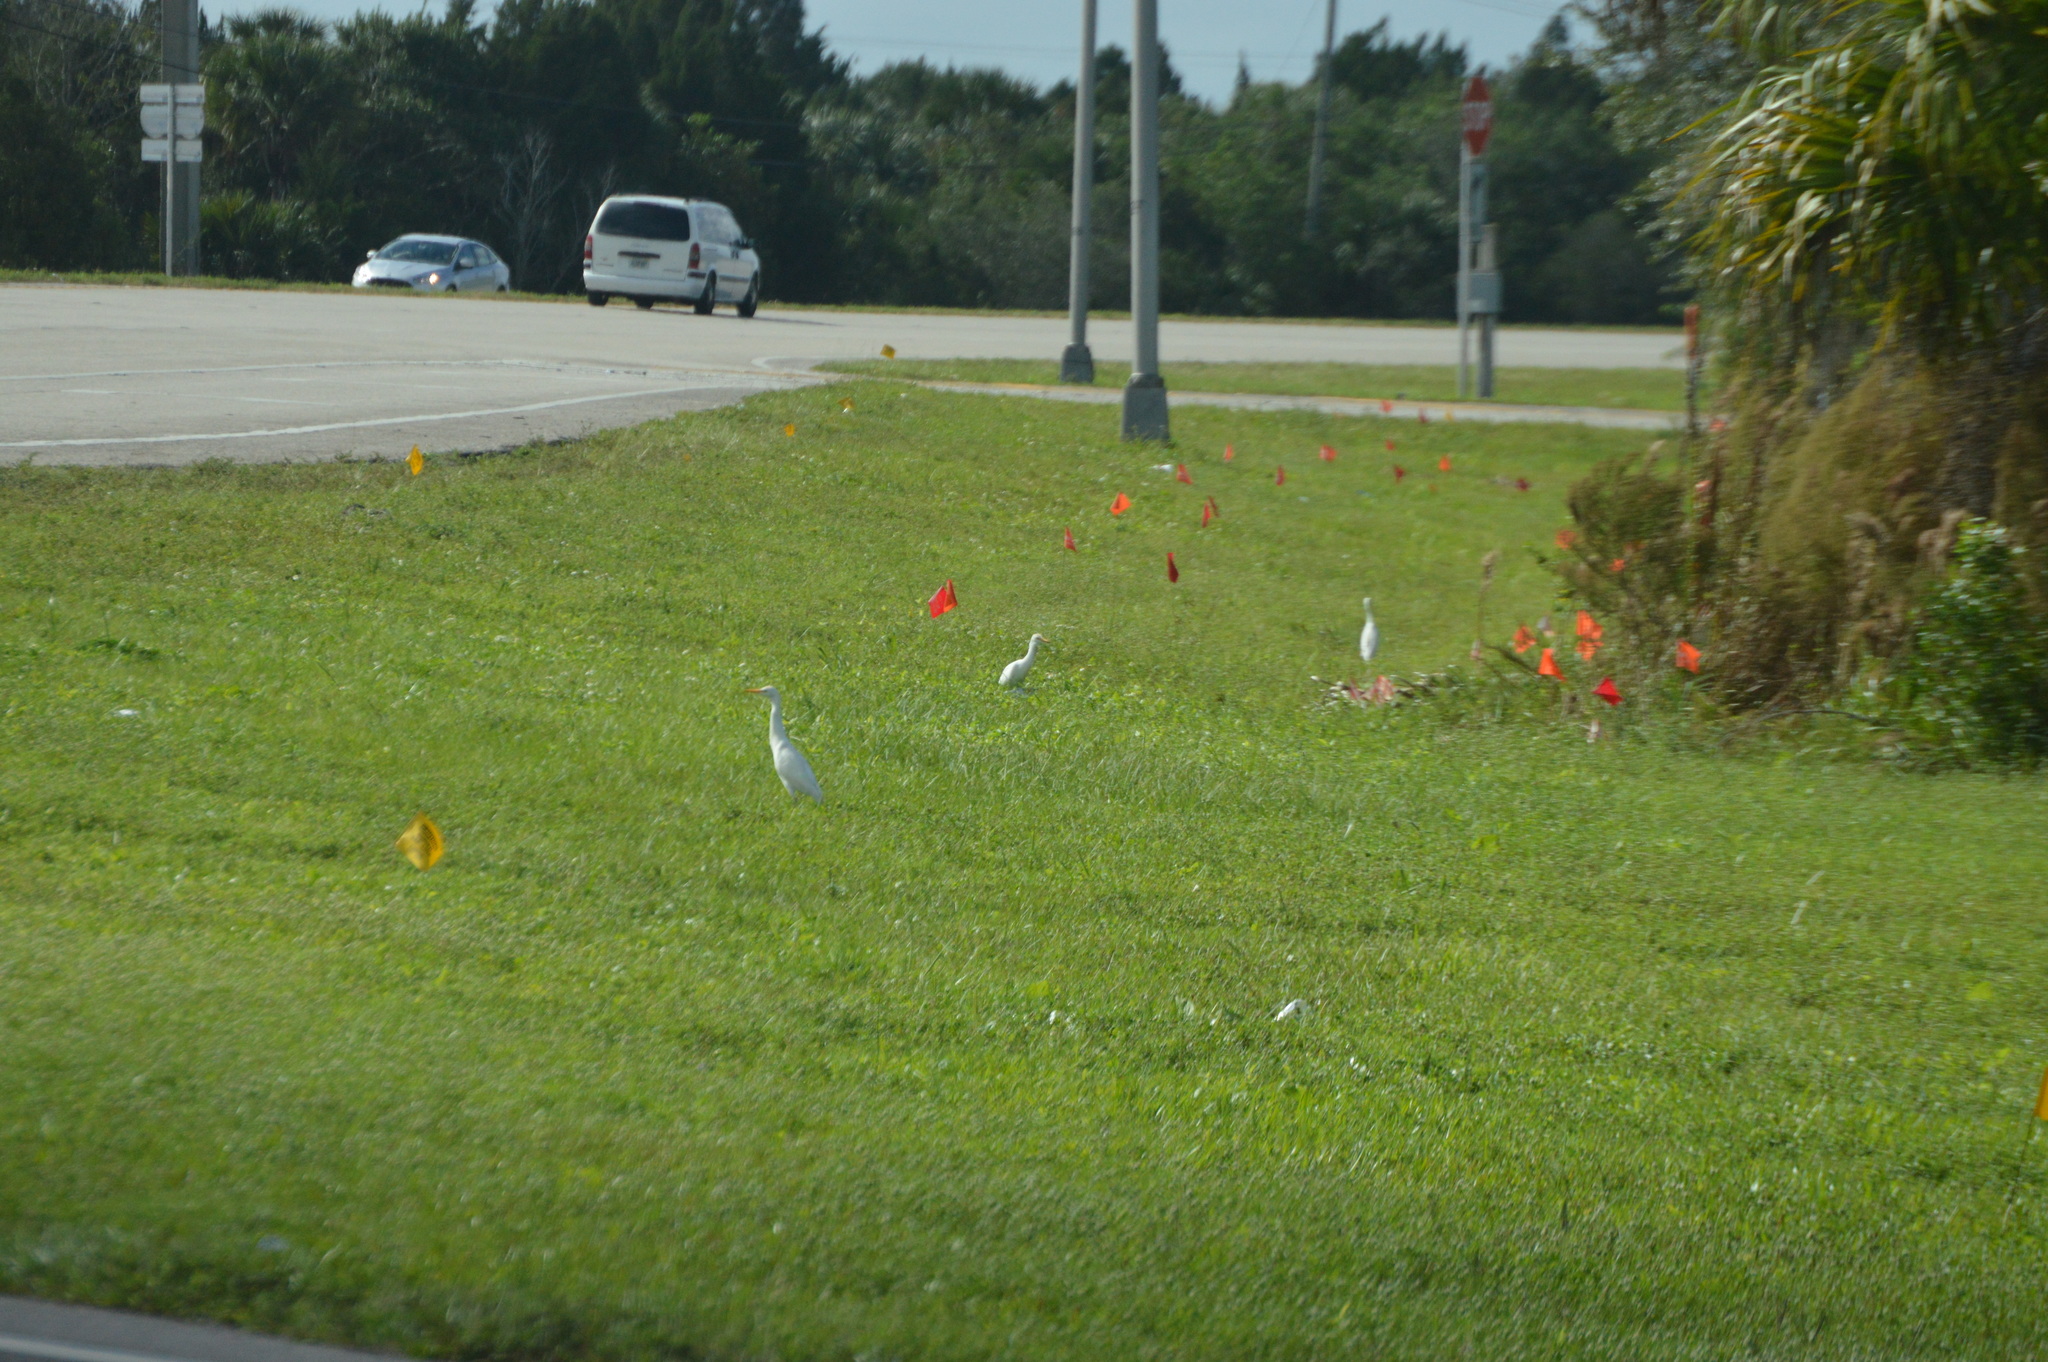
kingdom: Animalia
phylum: Chordata
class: Aves
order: Pelecaniformes
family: Ardeidae
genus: Bubulcus
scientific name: Bubulcus ibis
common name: Cattle egret
